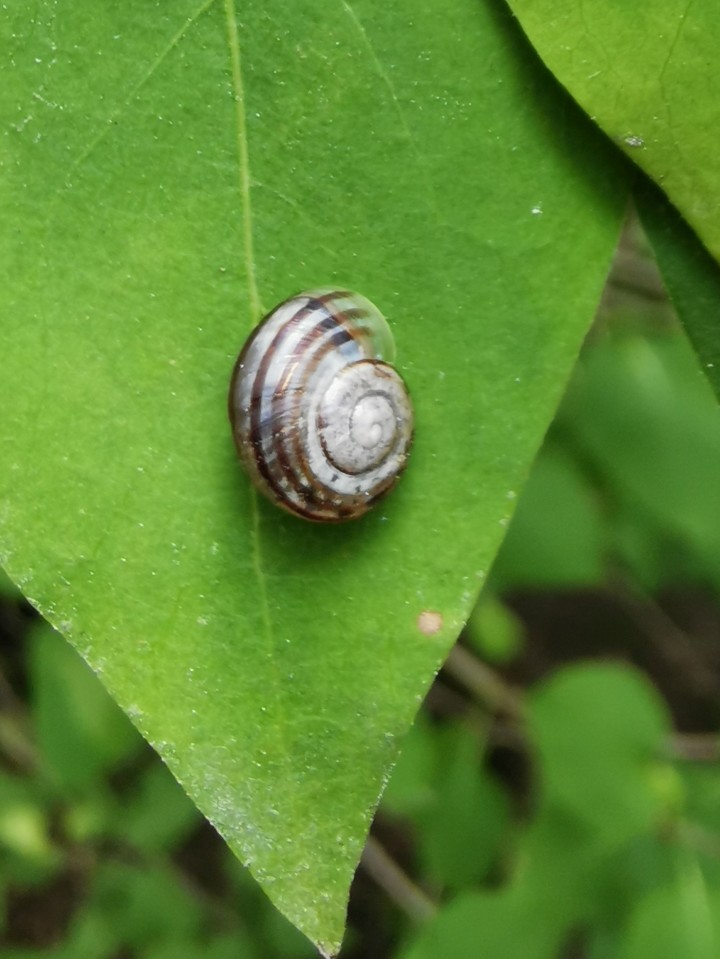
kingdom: Animalia
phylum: Mollusca
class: Gastropoda
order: Stylommatophora
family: Helicidae
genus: Cepaea
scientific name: Cepaea
